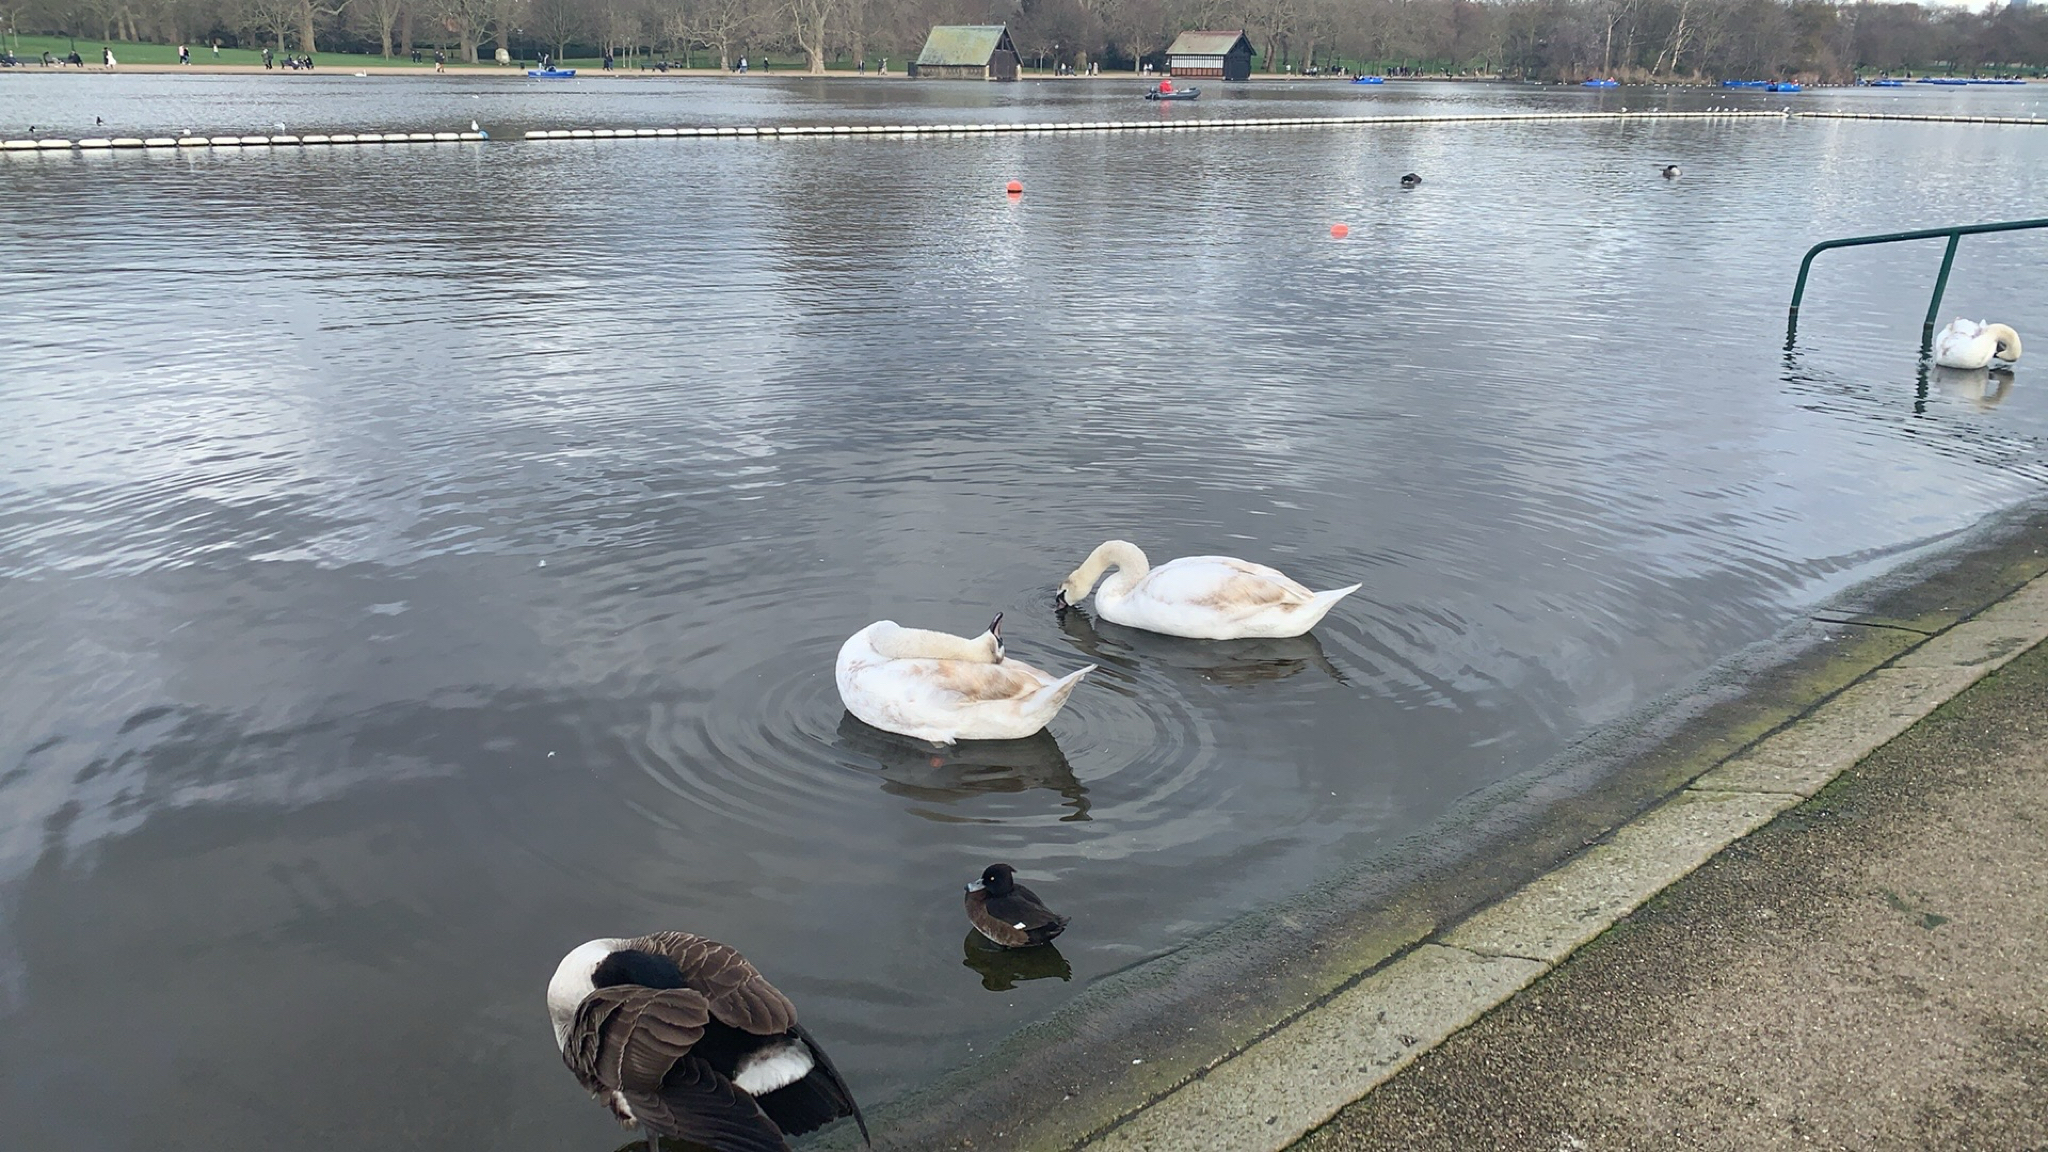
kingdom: Animalia
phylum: Chordata
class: Aves
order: Anseriformes
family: Anatidae
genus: Cygnus
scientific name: Cygnus olor
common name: Mute swan
